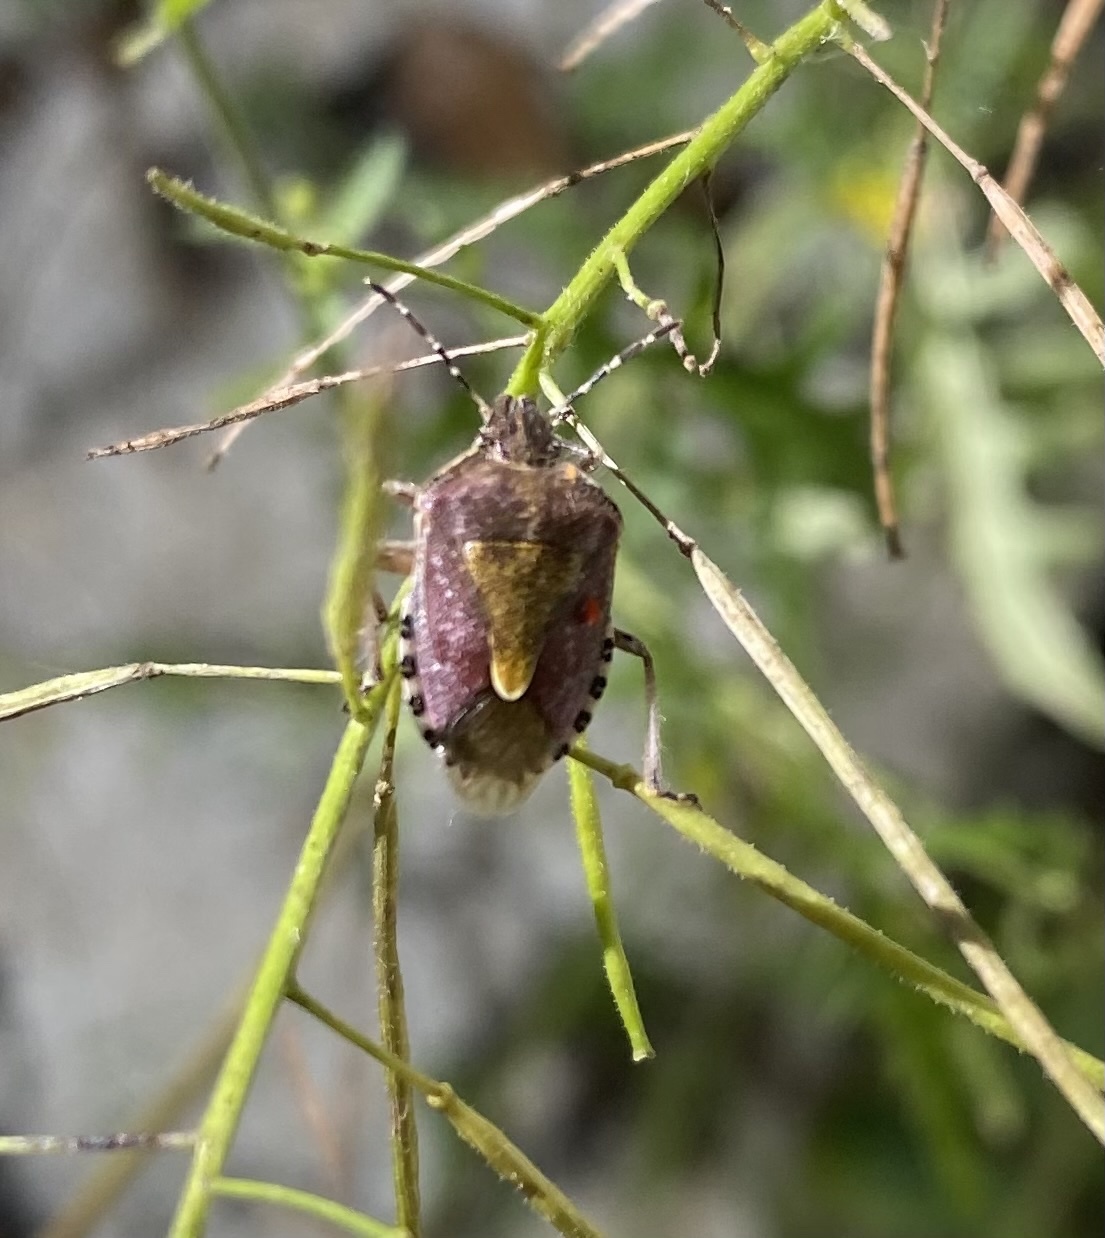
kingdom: Animalia
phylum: Arthropoda
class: Insecta
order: Hemiptera
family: Pentatomidae
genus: Dolycoris
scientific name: Dolycoris baccarum
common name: Sloe bug
